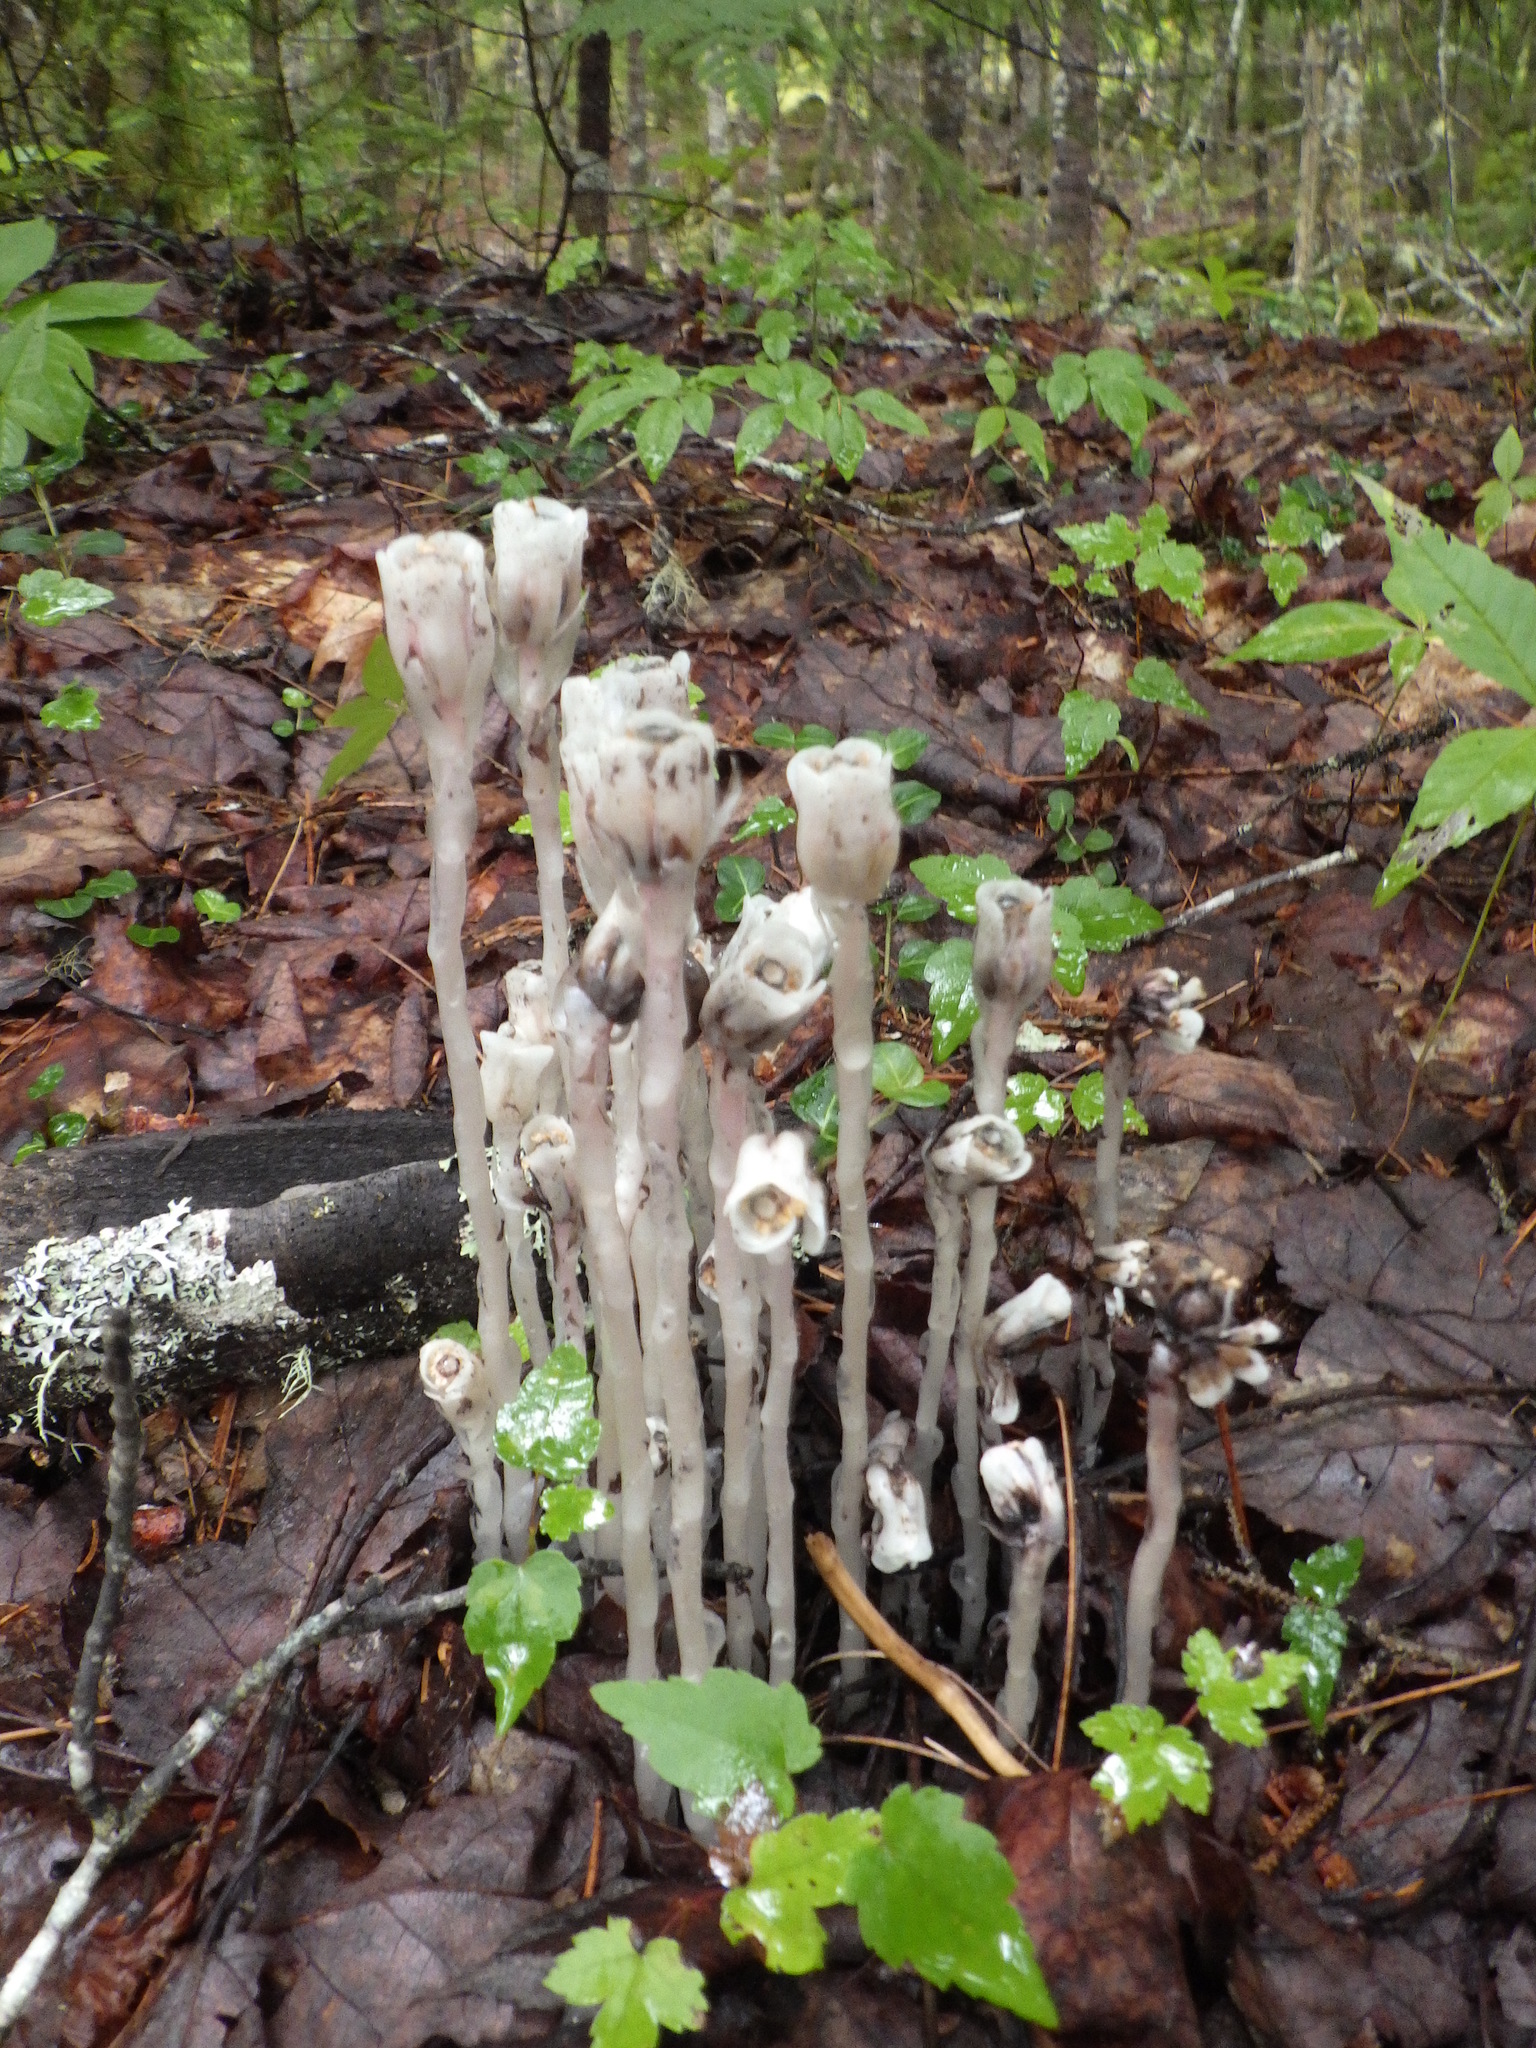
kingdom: Plantae
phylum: Tracheophyta
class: Magnoliopsida
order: Ericales
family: Ericaceae
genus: Monotropa
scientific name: Monotropa uniflora
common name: Convulsion root
